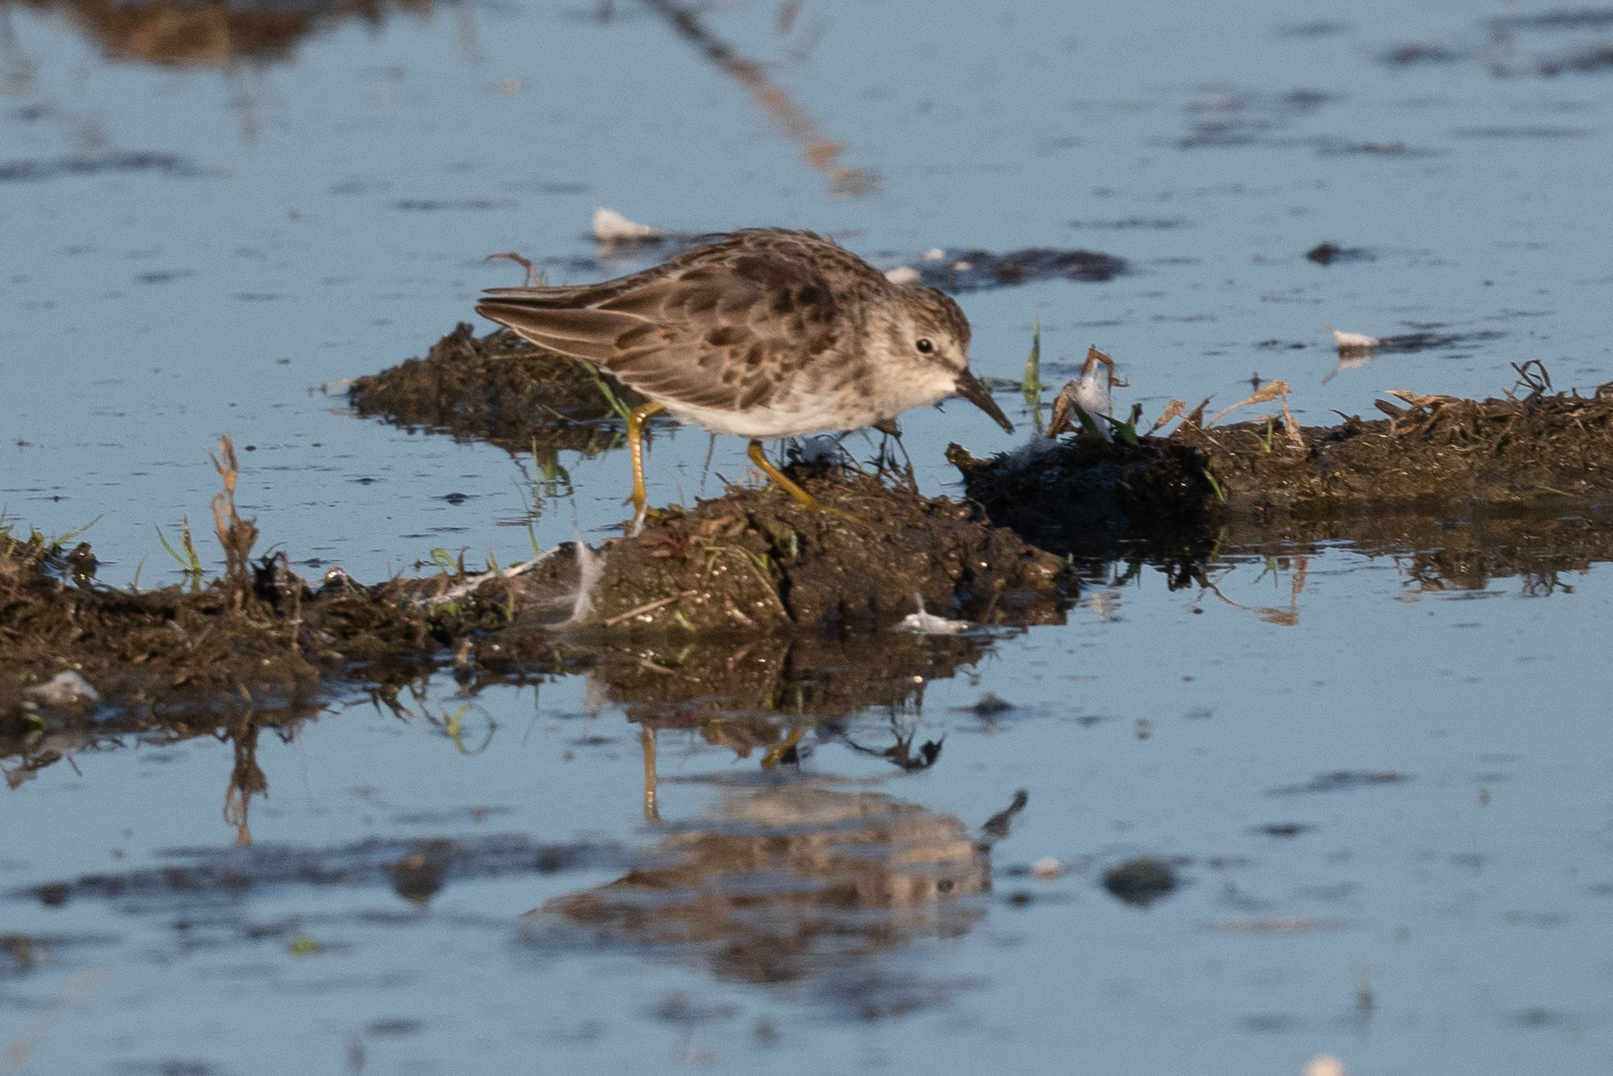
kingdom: Animalia
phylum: Chordata
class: Aves
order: Charadriiformes
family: Scolopacidae
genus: Calidris
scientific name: Calidris minutilla
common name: Least sandpiper
